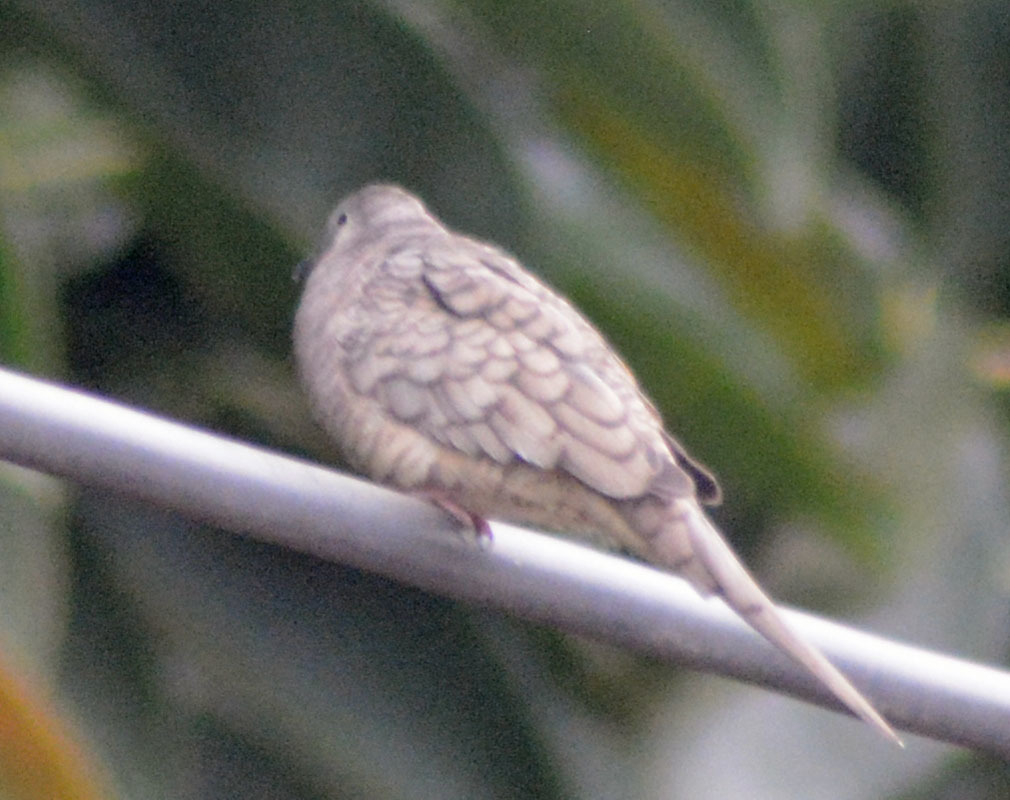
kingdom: Animalia
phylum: Chordata
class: Aves
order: Columbiformes
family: Columbidae
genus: Columbina
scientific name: Columbina inca
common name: Inca dove
